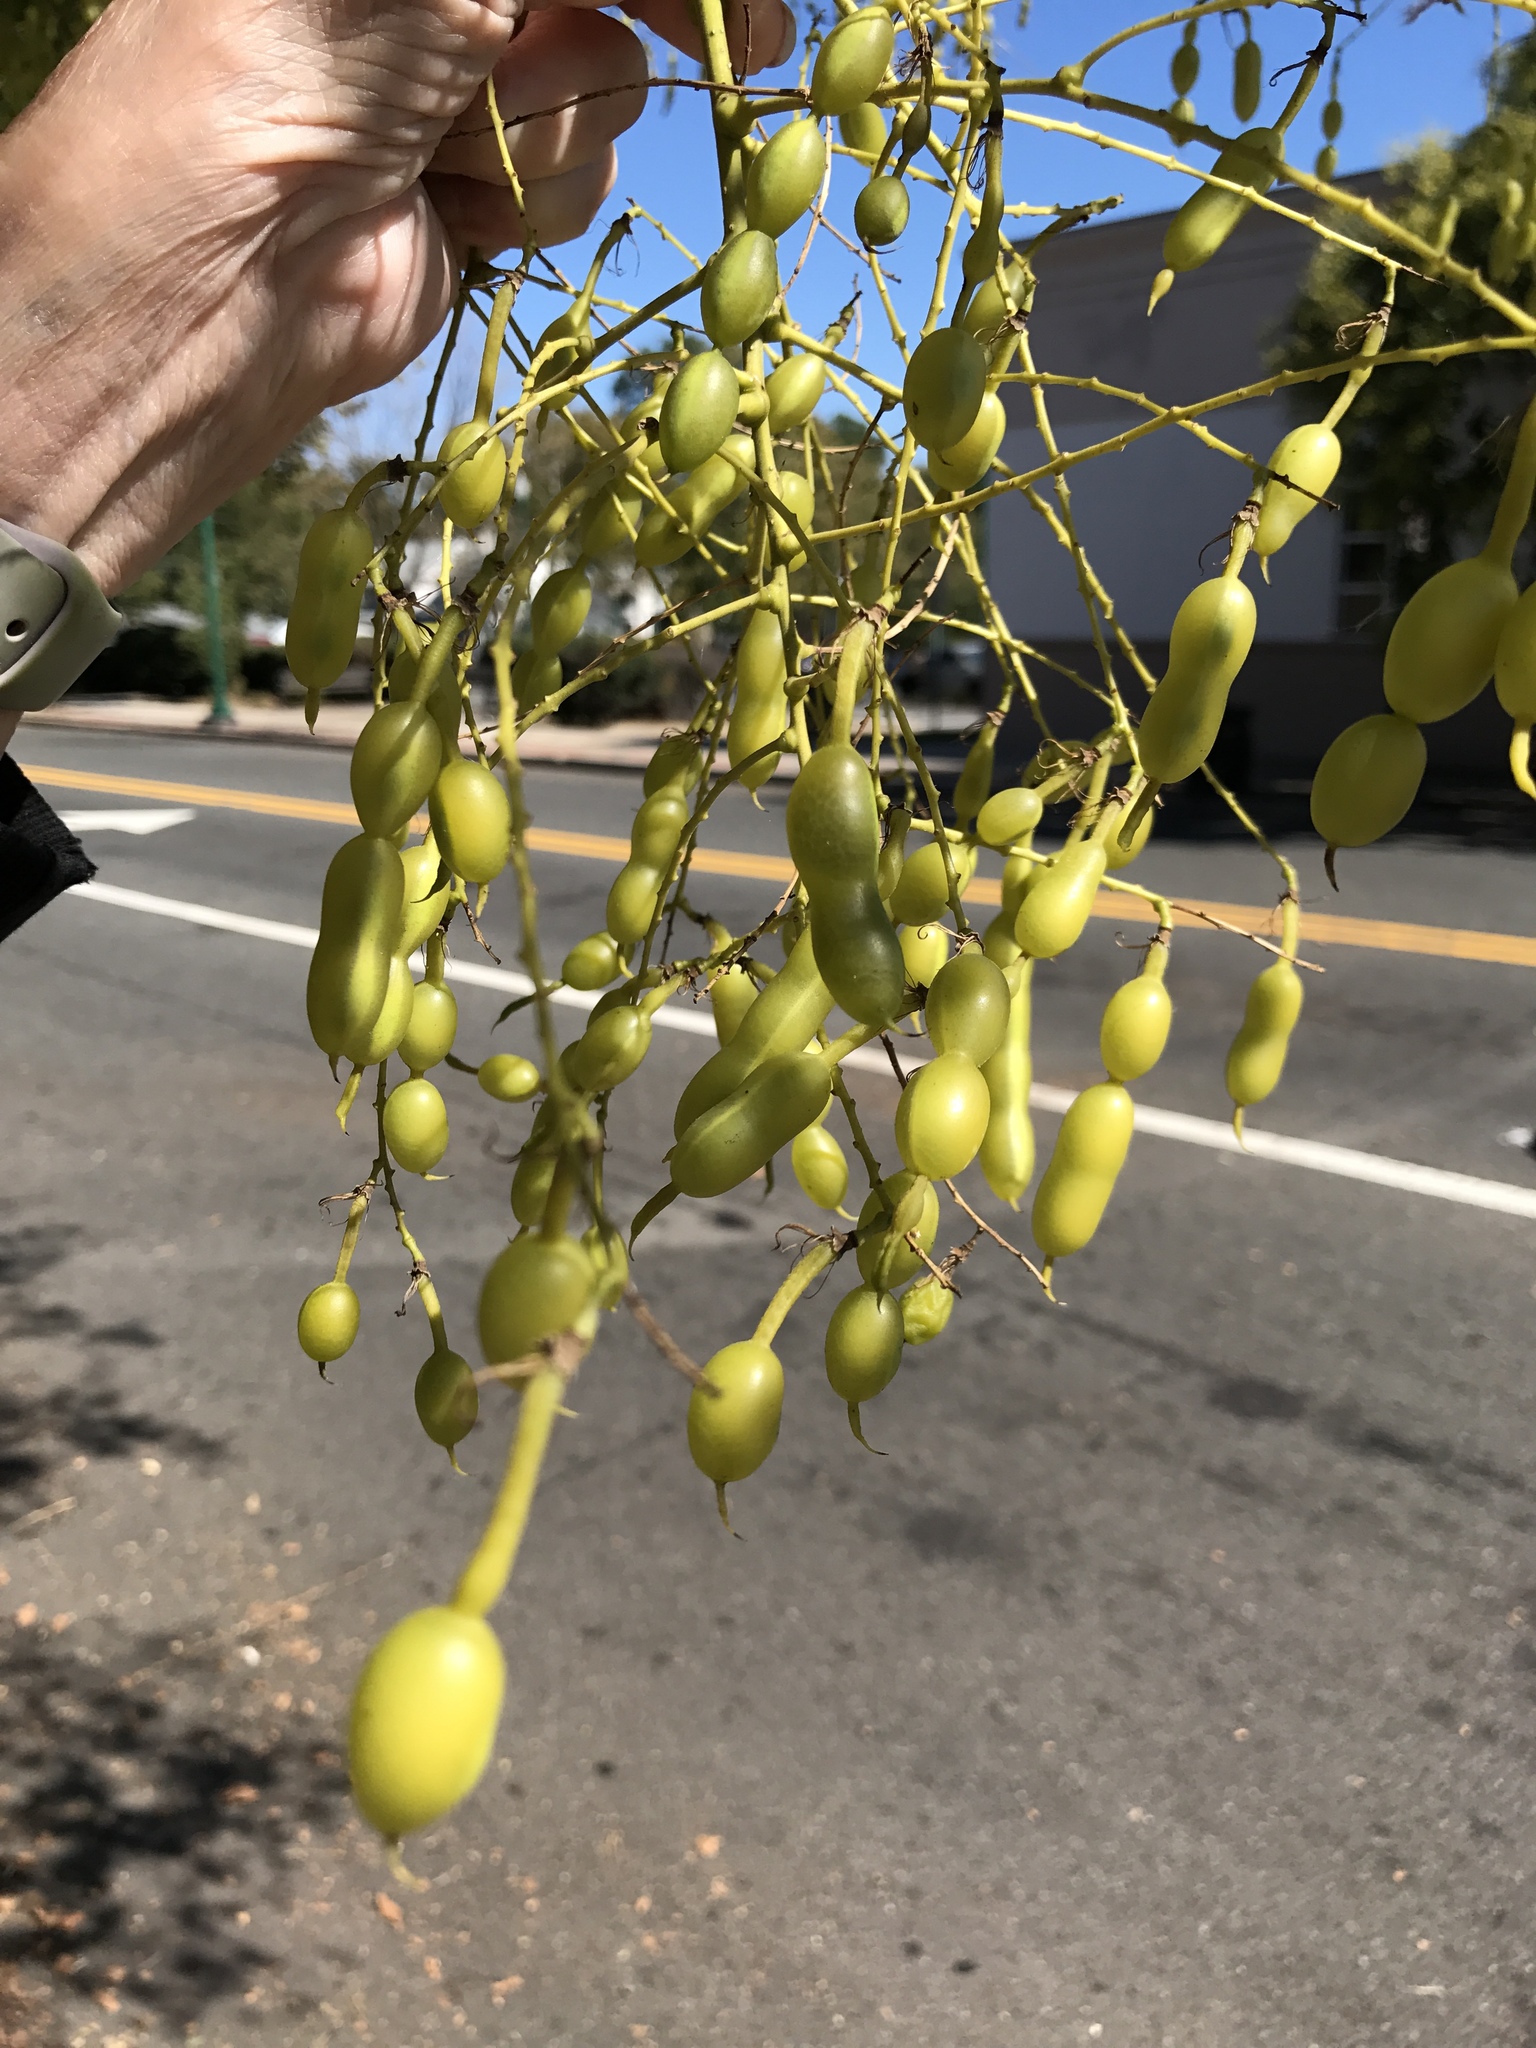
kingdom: Plantae
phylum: Tracheophyta
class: Magnoliopsida
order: Fabales
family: Fabaceae
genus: Styphnolobium
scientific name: Styphnolobium japonicum
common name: Chinese scholartree
